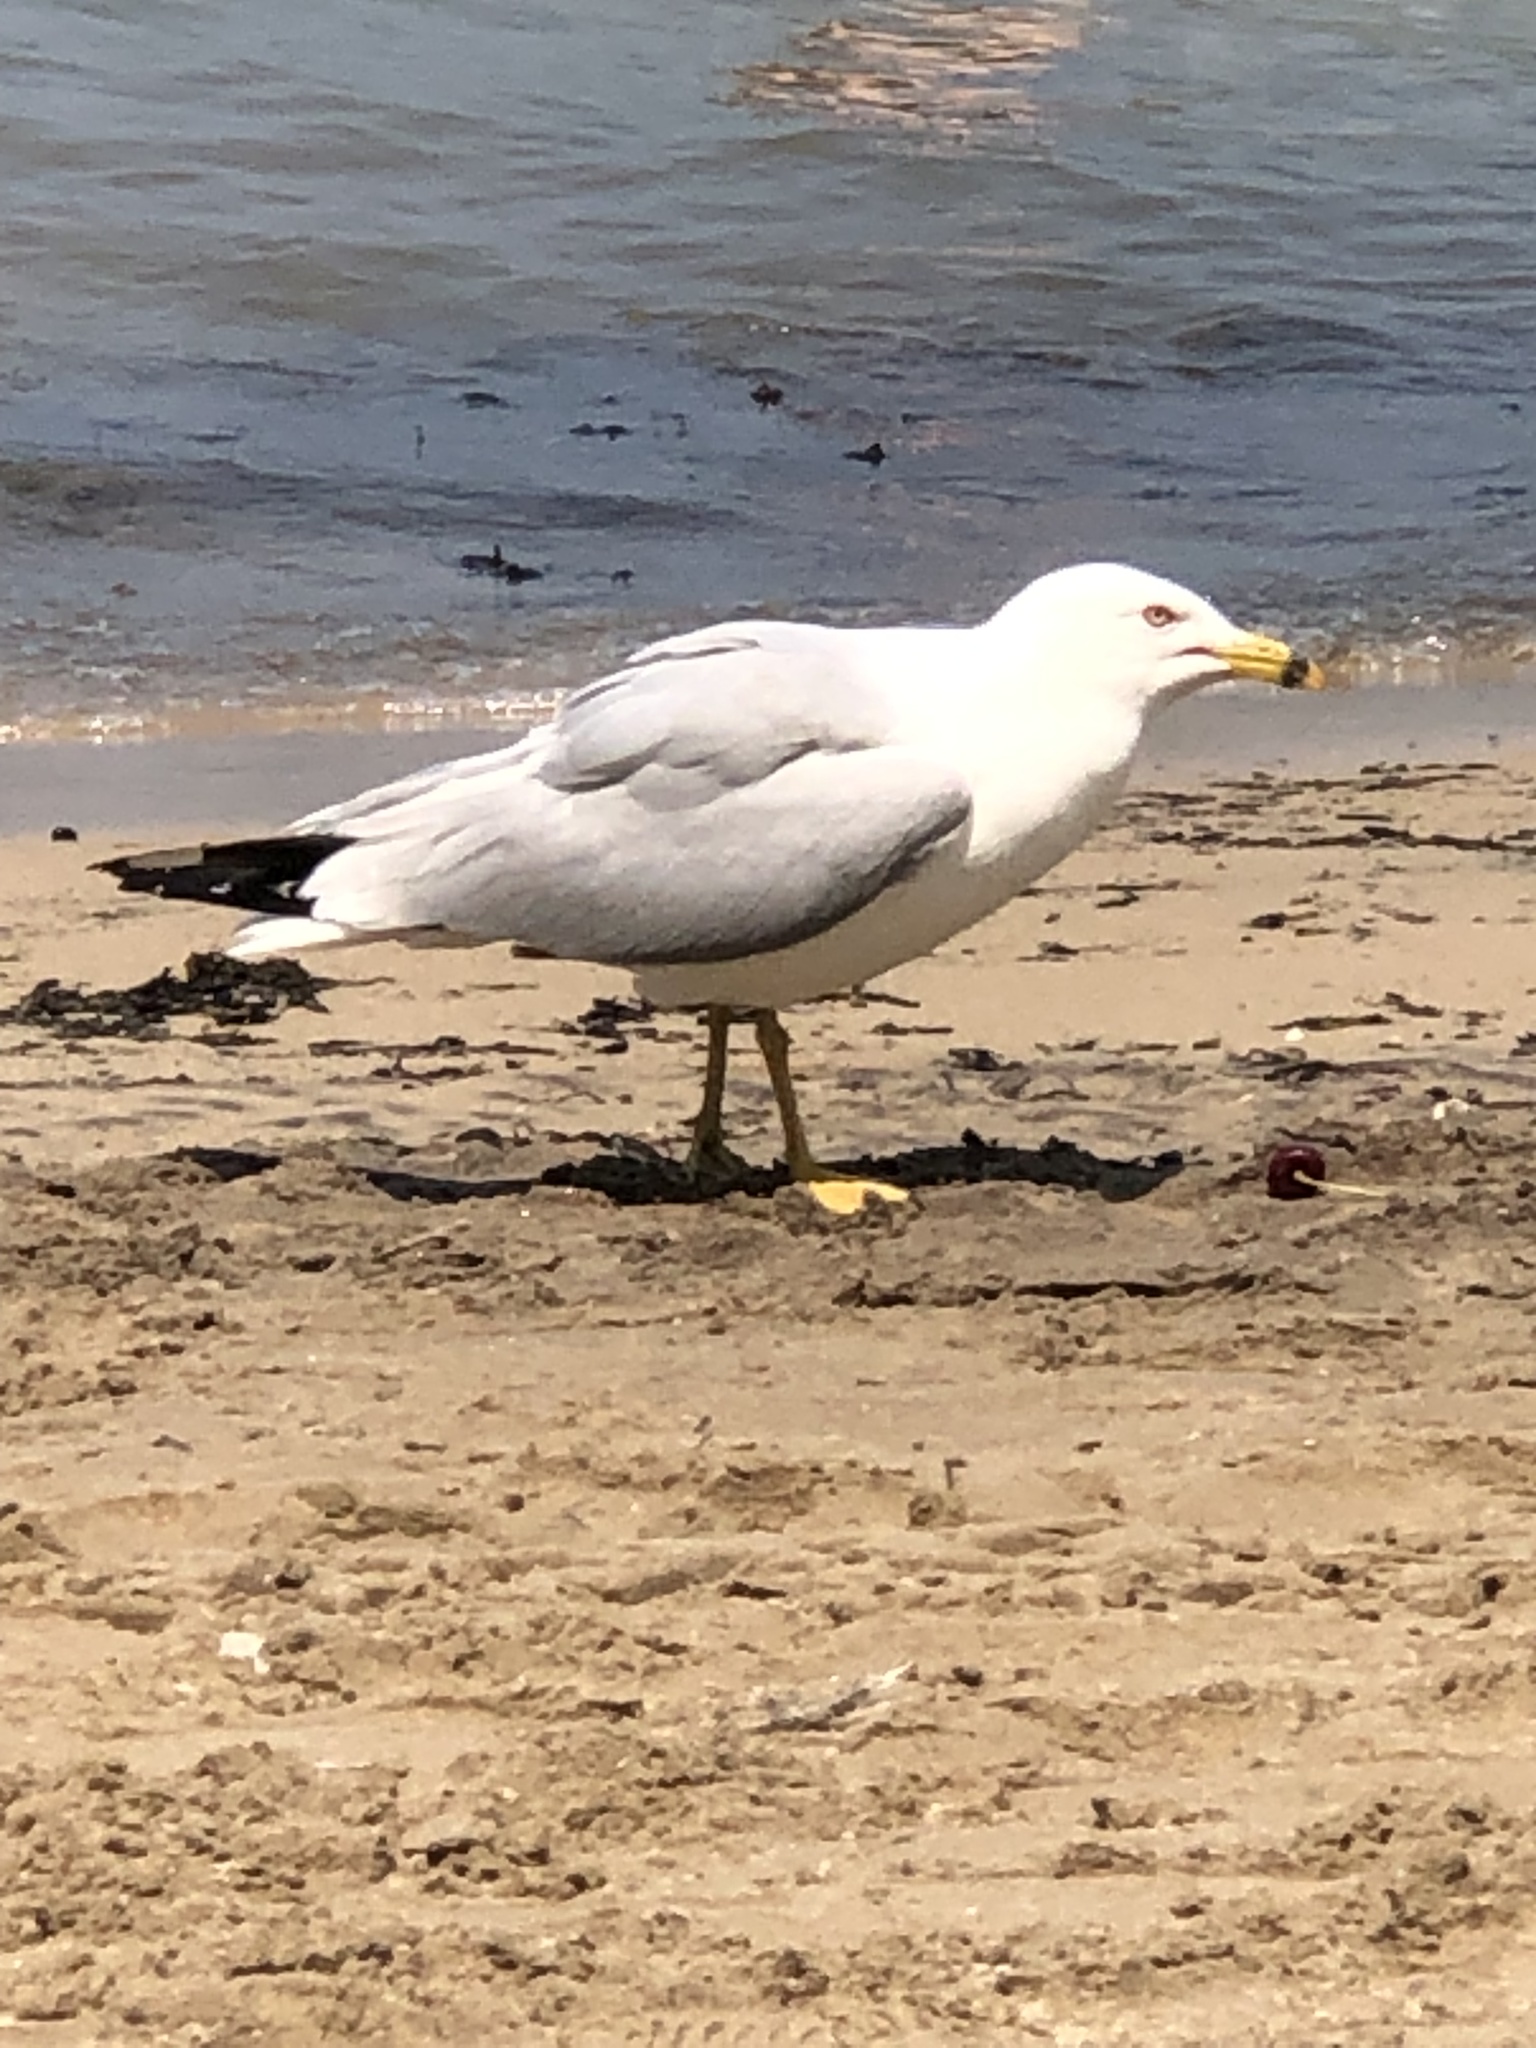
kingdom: Animalia
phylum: Chordata
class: Aves
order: Charadriiformes
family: Laridae
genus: Larus
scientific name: Larus delawarensis
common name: Ring-billed gull
